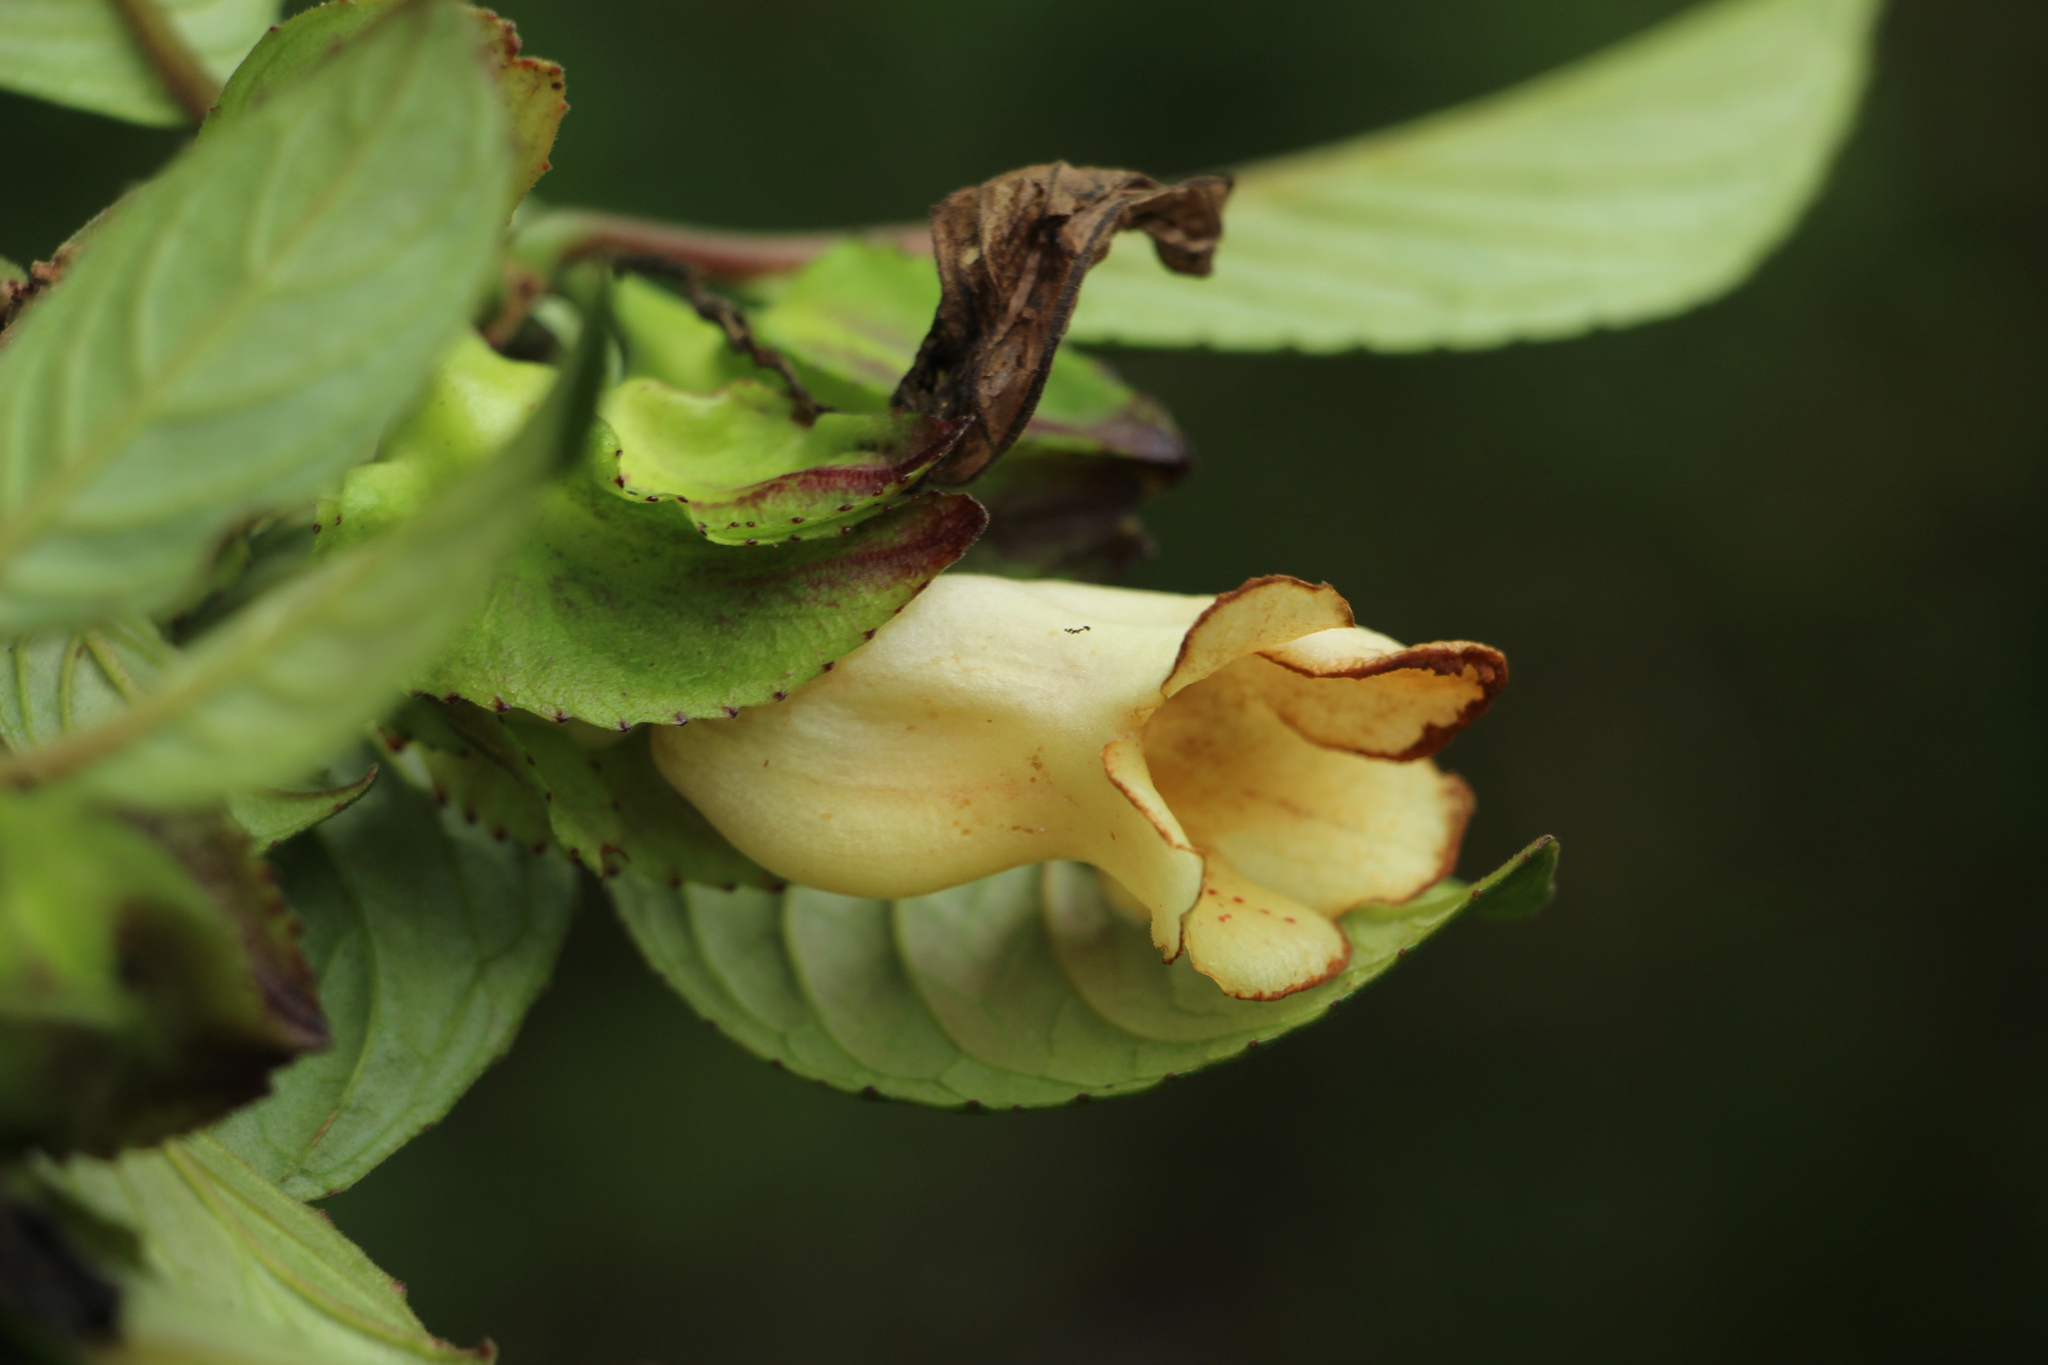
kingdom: Plantae
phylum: Tracheophyta
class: Magnoliopsida
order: Lamiales
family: Gesneriaceae
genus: Drymonia
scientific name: Drymonia serrulata
